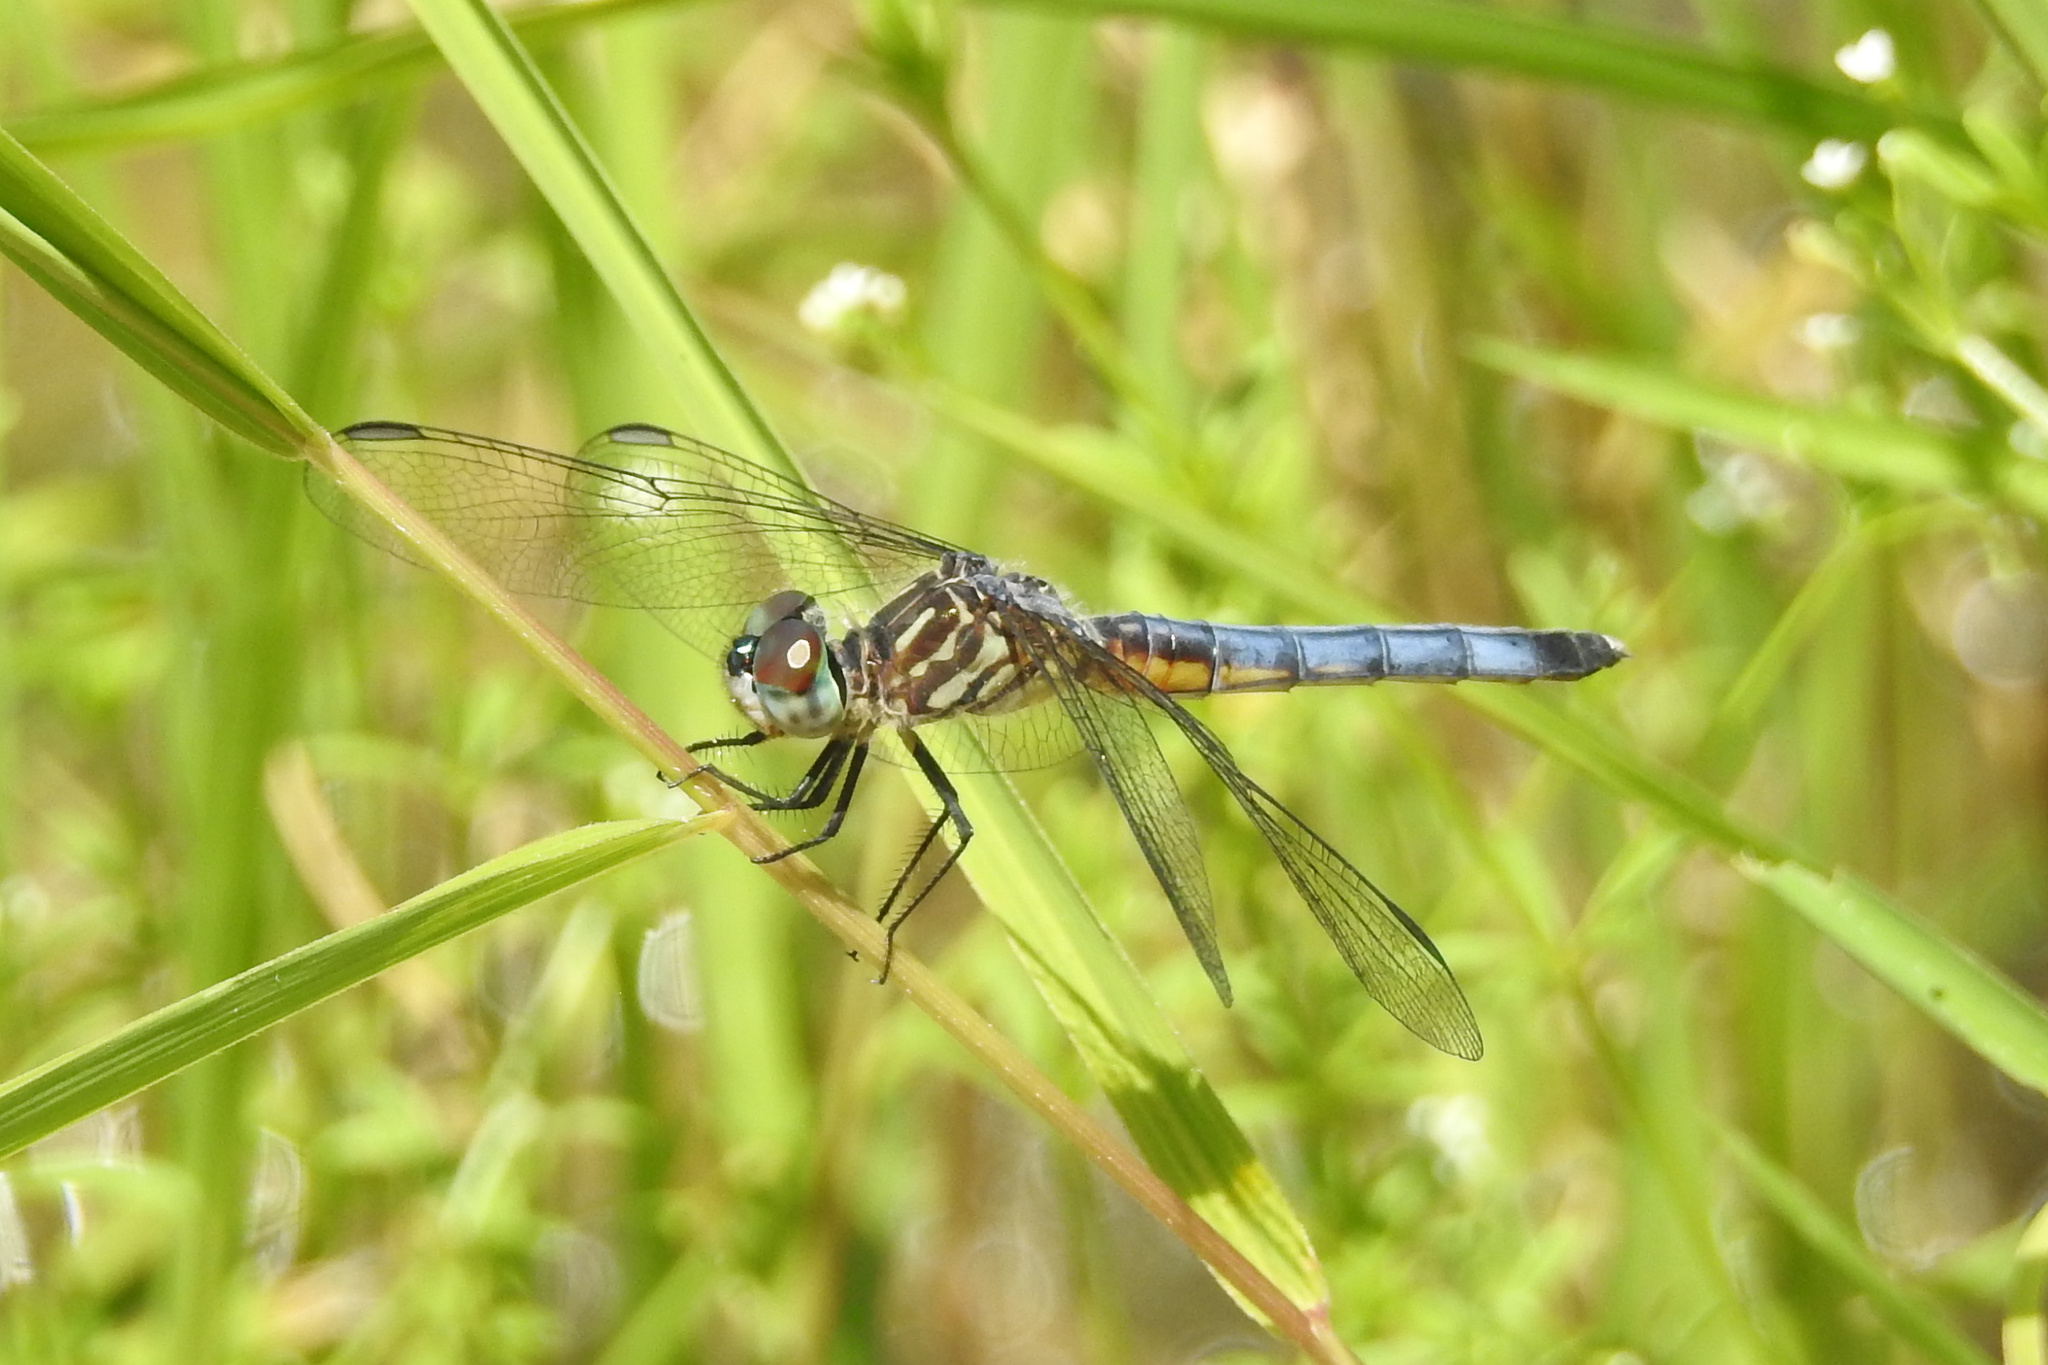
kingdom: Animalia
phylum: Arthropoda
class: Insecta
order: Odonata
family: Libellulidae
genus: Pachydiplax
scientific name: Pachydiplax longipennis
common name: Blue dasher
